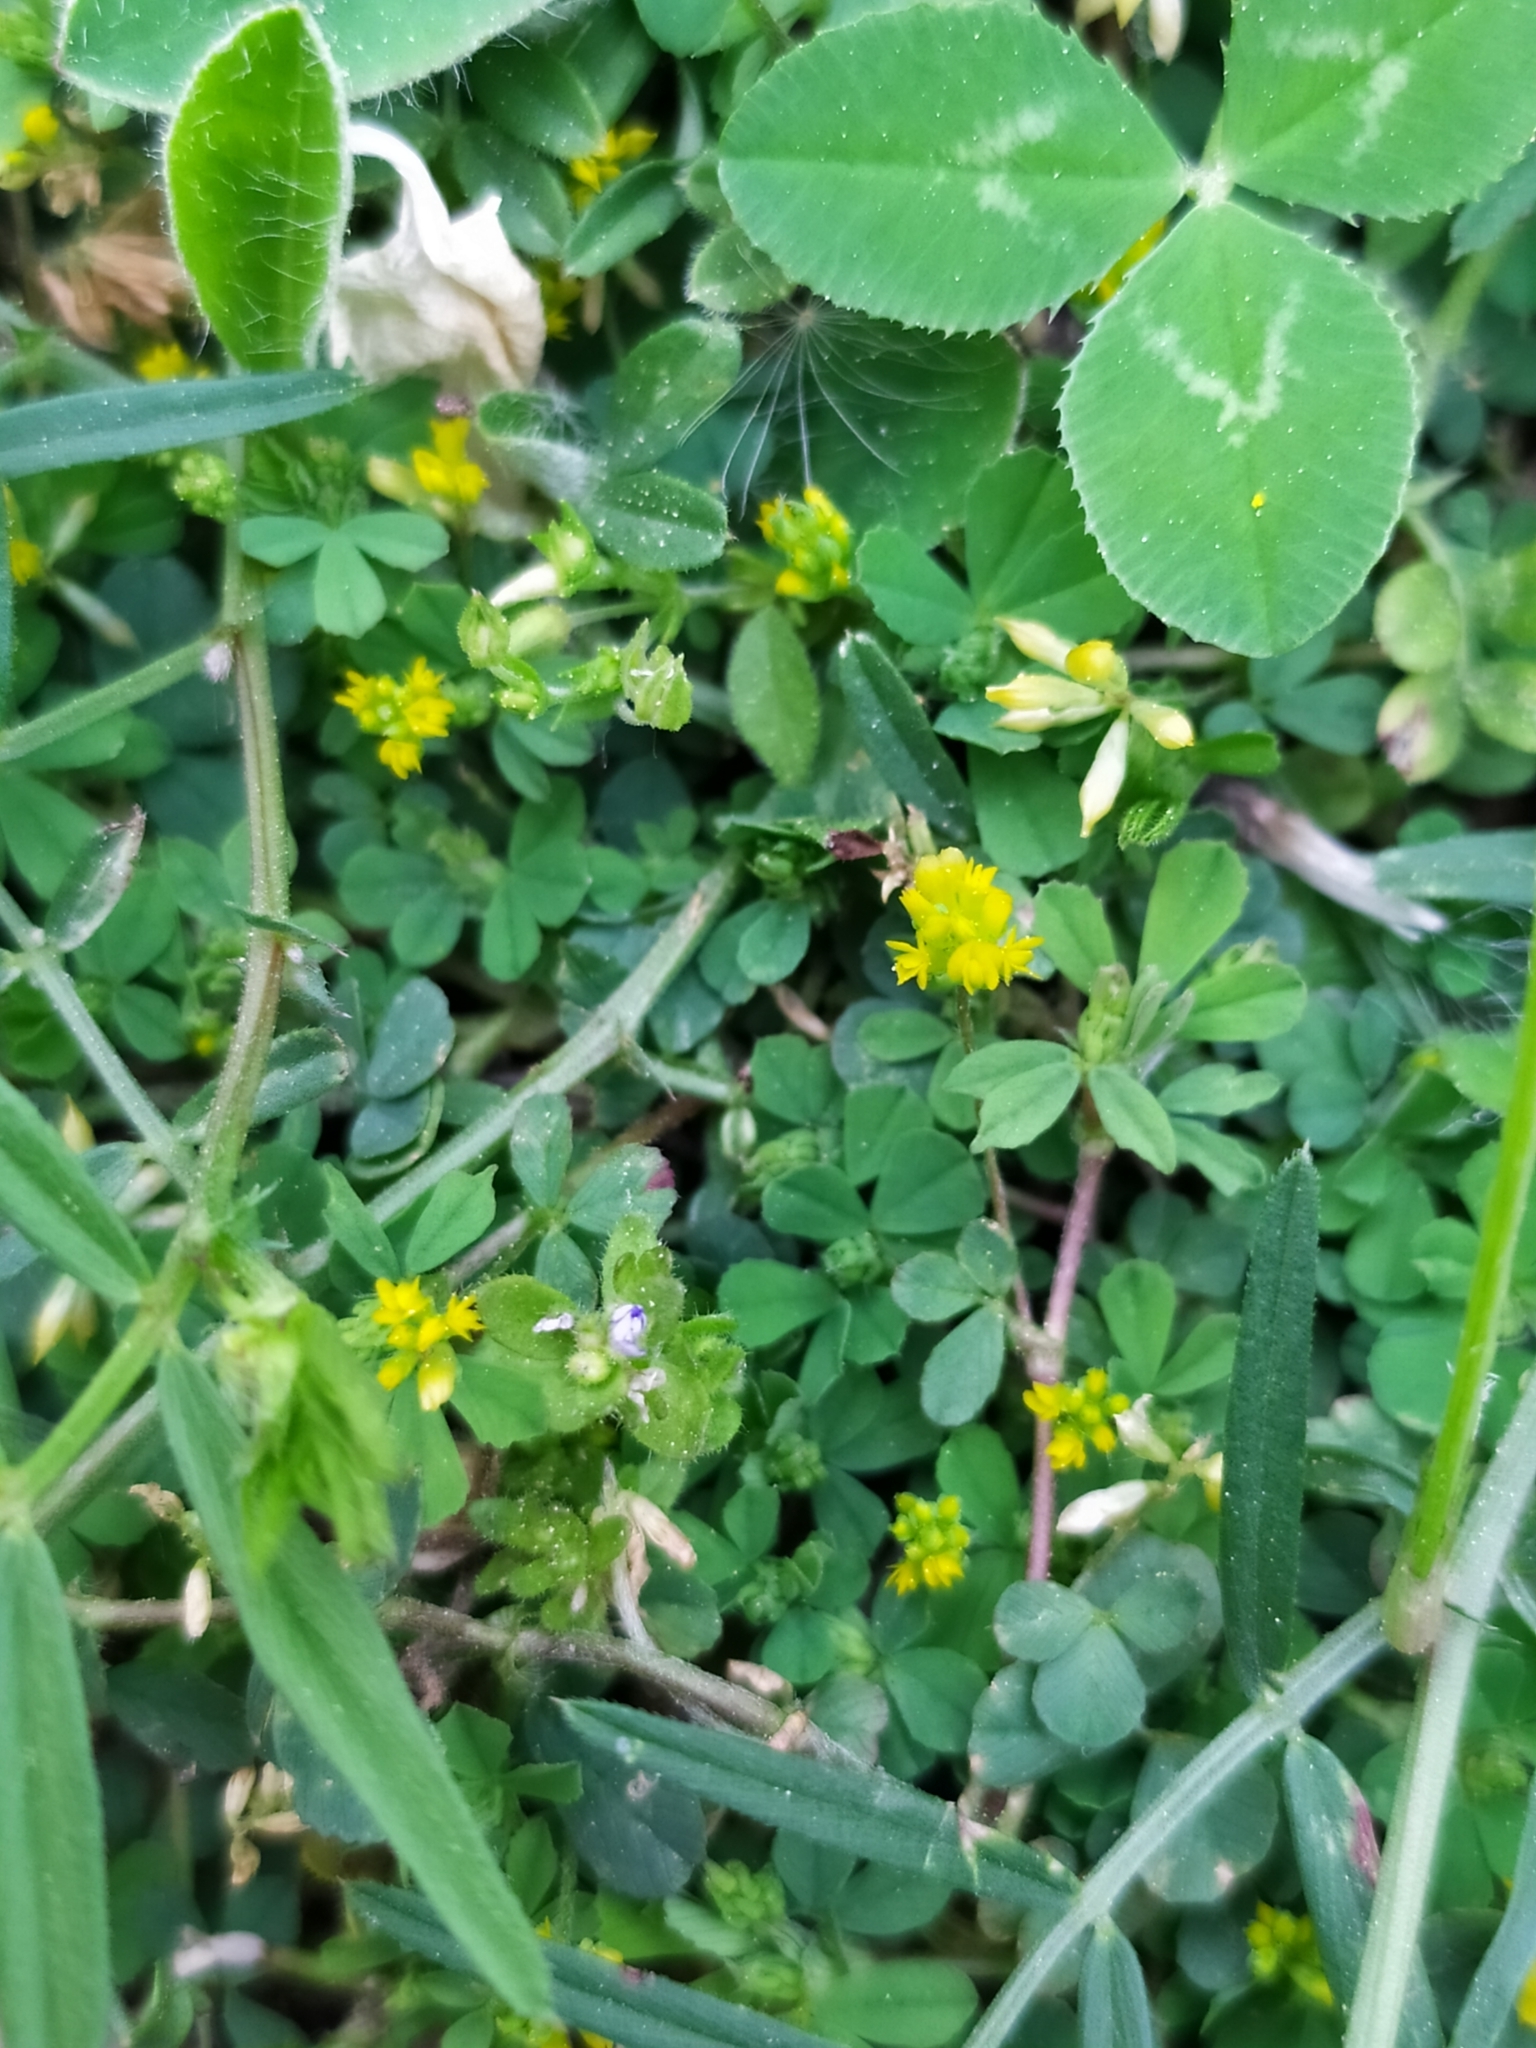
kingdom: Plantae
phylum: Tracheophyta
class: Magnoliopsida
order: Fabales
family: Fabaceae
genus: Trifolium
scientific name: Trifolium dubium
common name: Suckling clover
